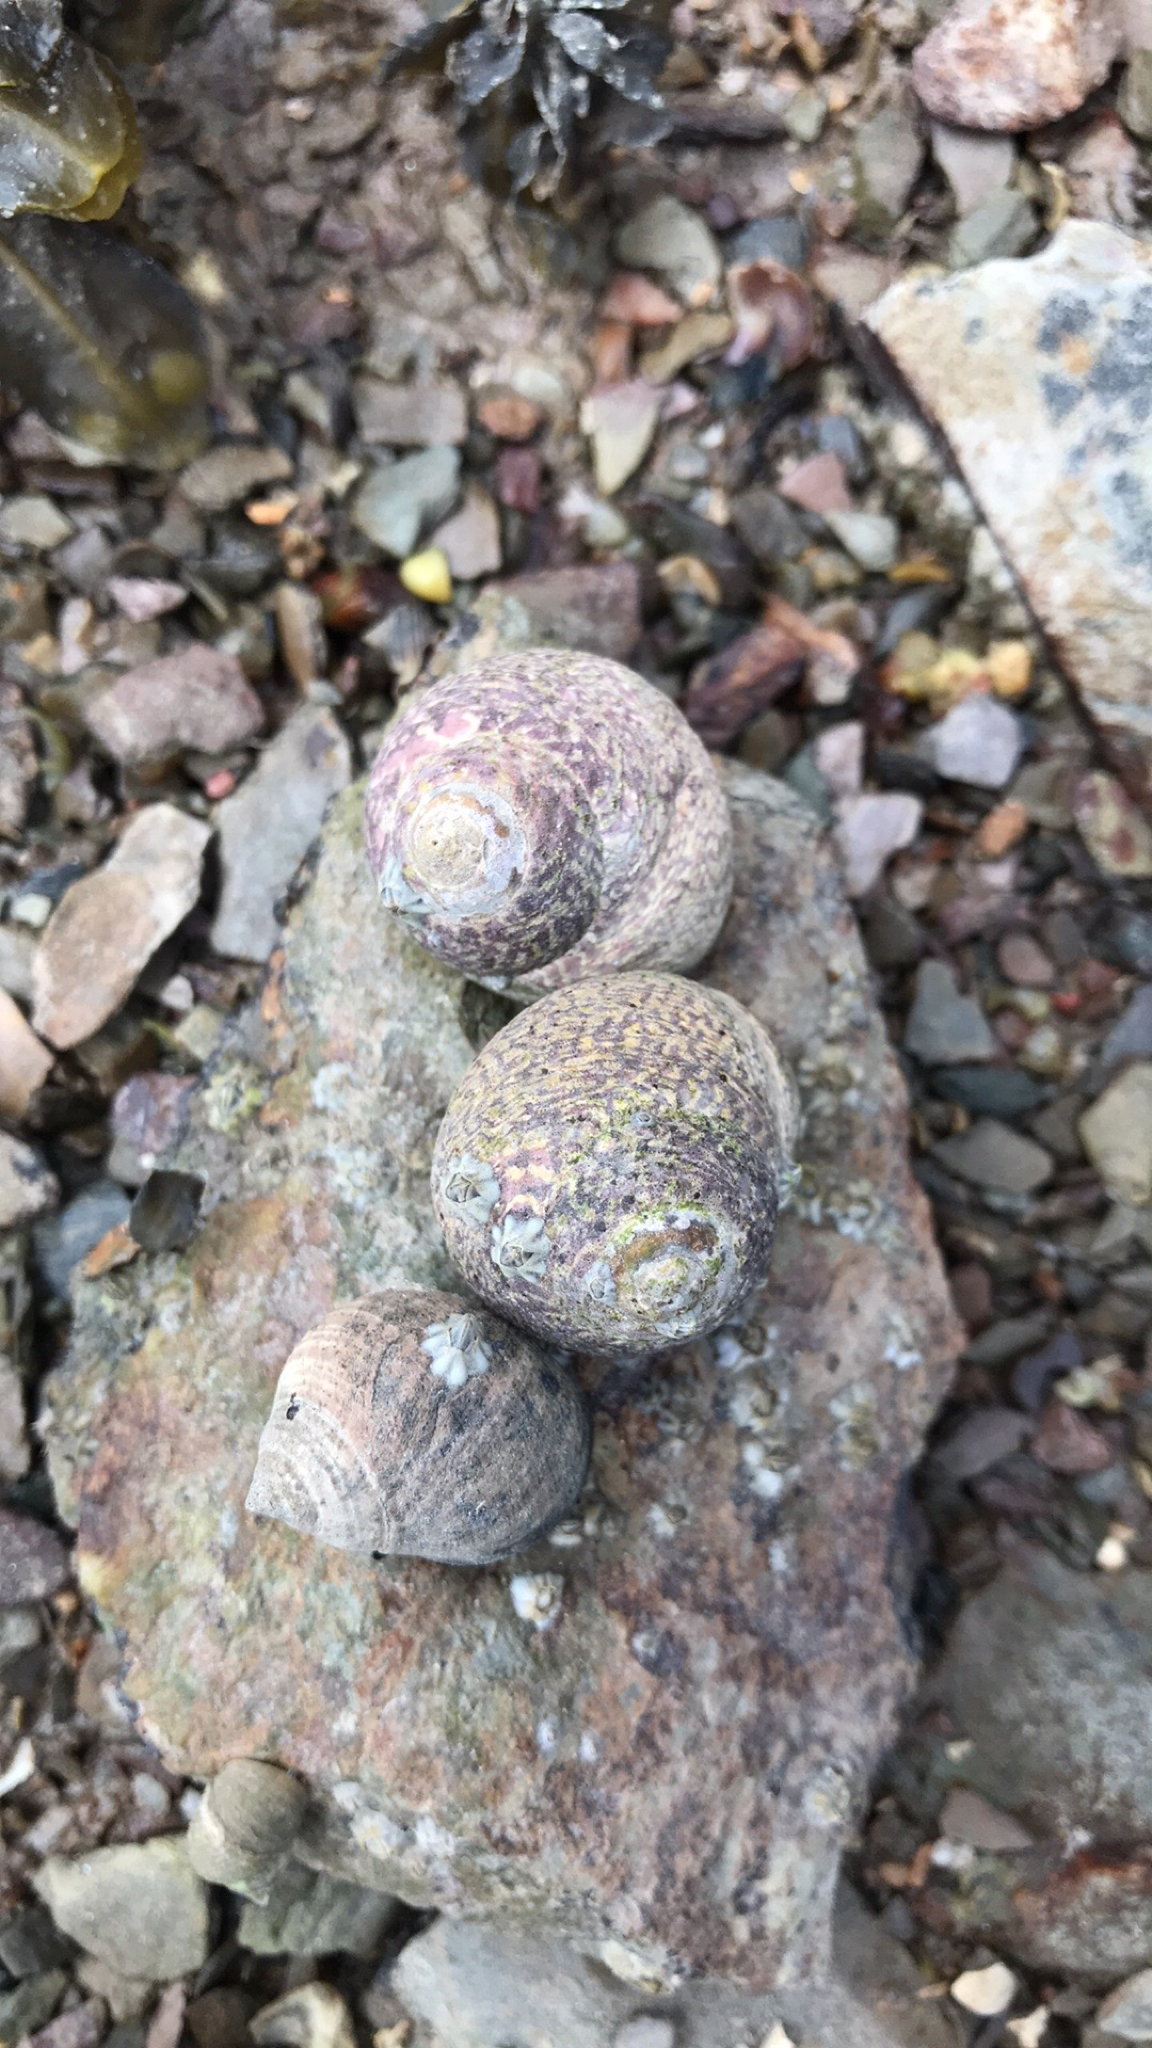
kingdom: Animalia
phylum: Mollusca
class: Gastropoda
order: Trochida
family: Trochidae
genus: Phorcus
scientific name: Phorcus lineatus
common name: Toothed top shell
